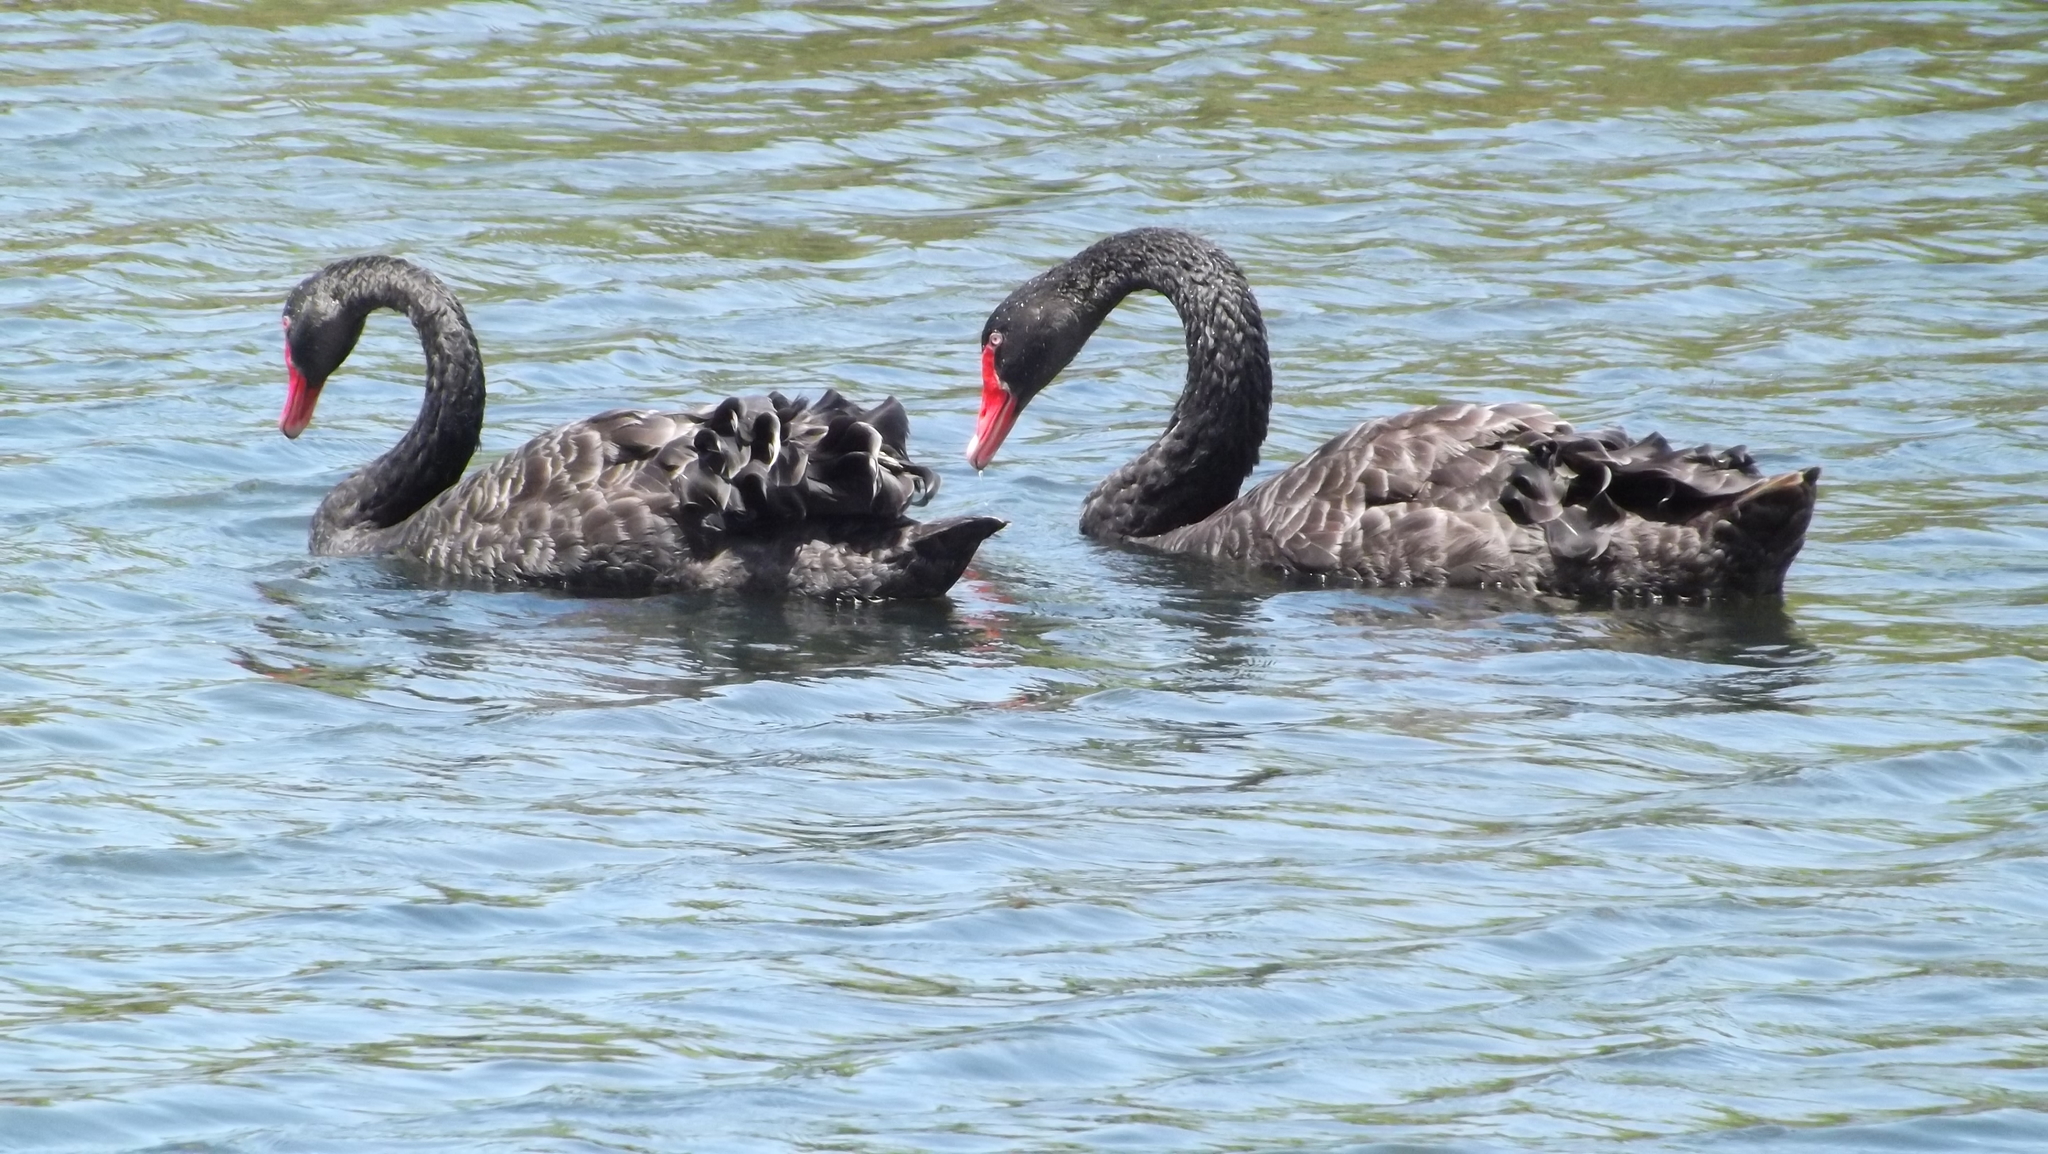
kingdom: Animalia
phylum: Chordata
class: Aves
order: Anseriformes
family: Anatidae
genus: Cygnus
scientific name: Cygnus atratus
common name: Black swan
